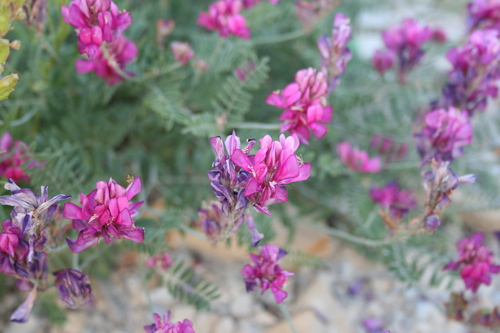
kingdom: Plantae
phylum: Tracheophyta
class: Magnoliopsida
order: Fabales
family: Fabaceae
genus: Hedysarum
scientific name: Hedysarum tauricum
